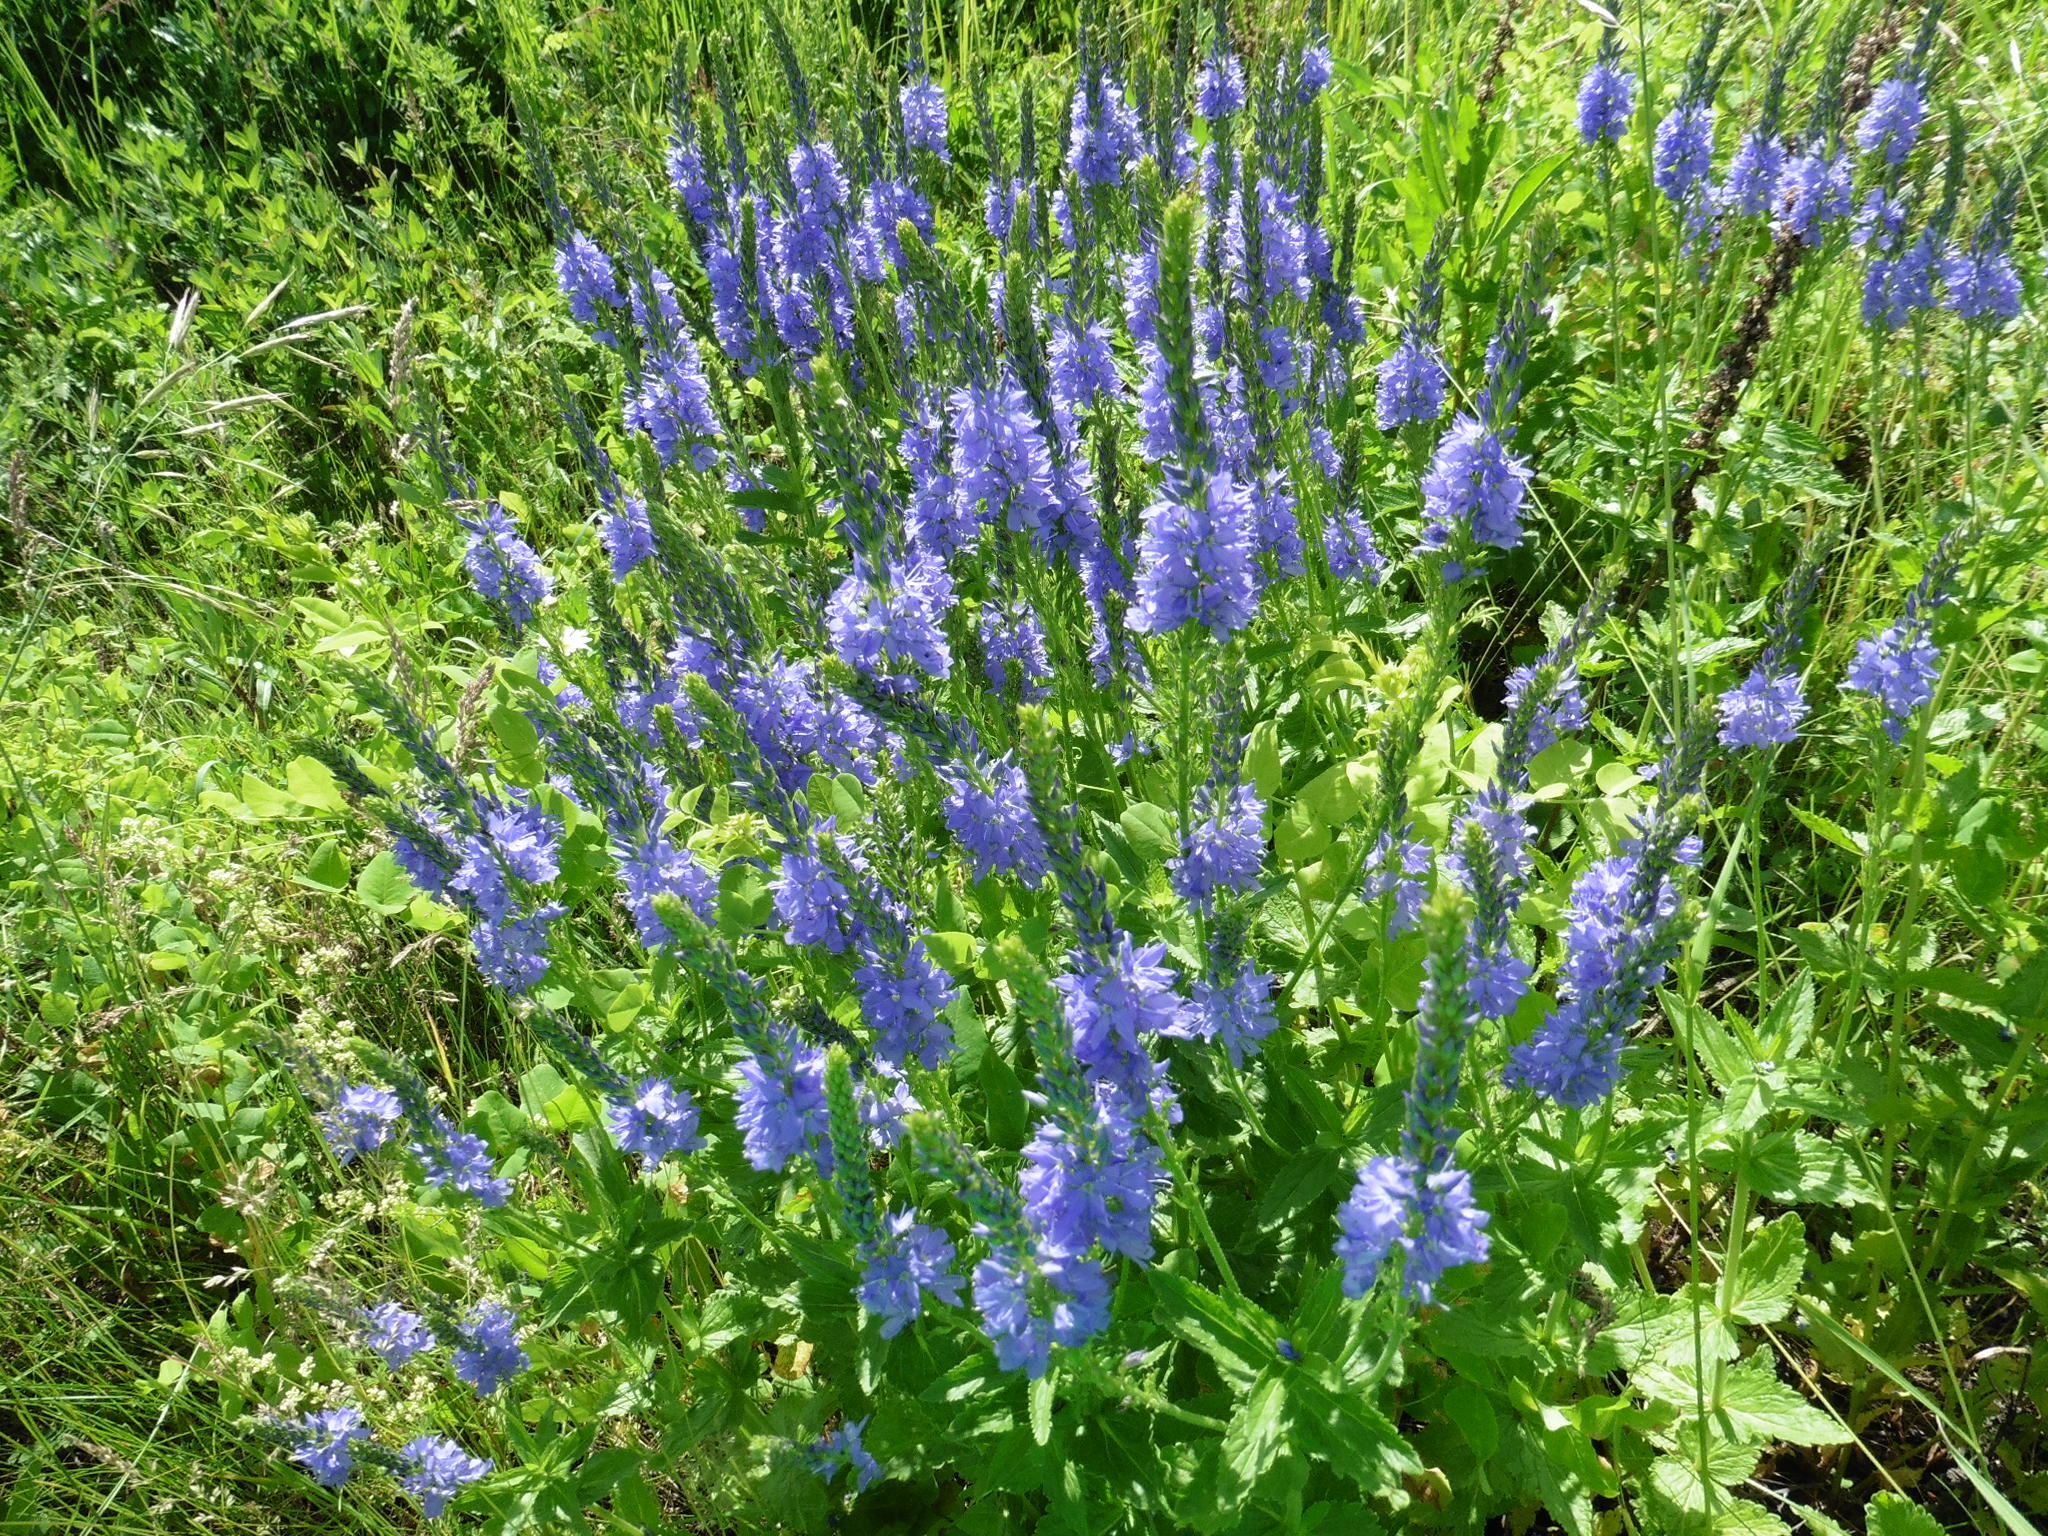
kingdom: Plantae
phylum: Tracheophyta
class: Magnoliopsida
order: Lamiales
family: Plantaginaceae
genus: Veronica
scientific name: Veronica teucrium
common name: Large speedwell
